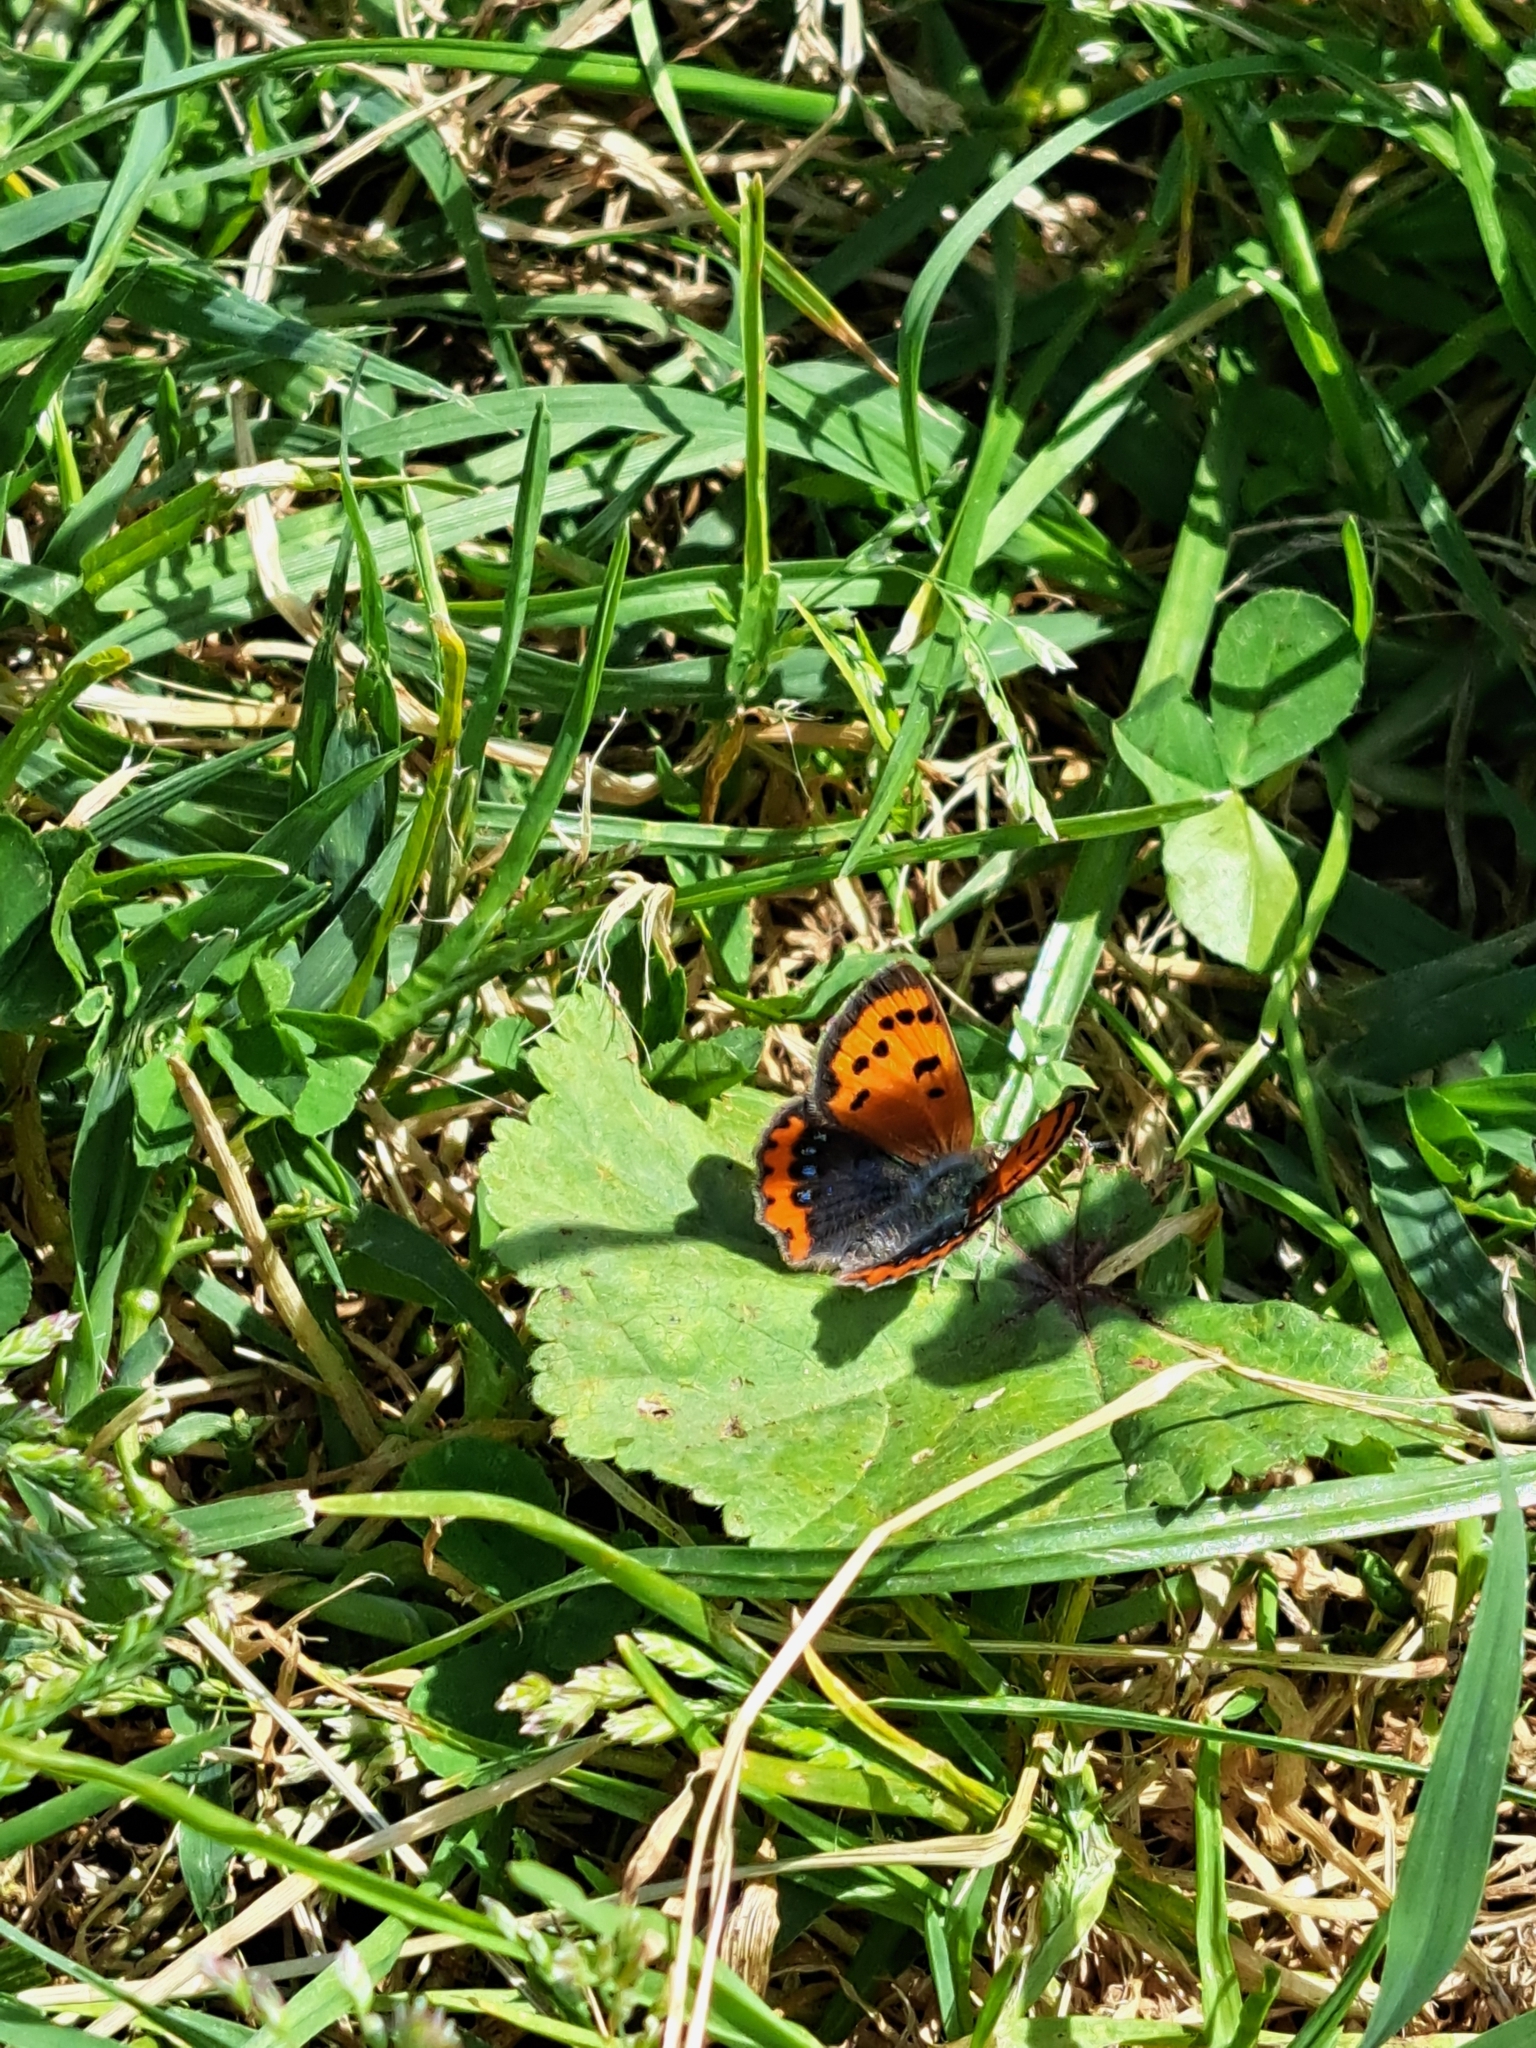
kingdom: Animalia
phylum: Arthropoda
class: Insecta
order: Lepidoptera
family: Lycaenidae
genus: Lycaena
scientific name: Lycaena phlaeas
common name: Small copper
